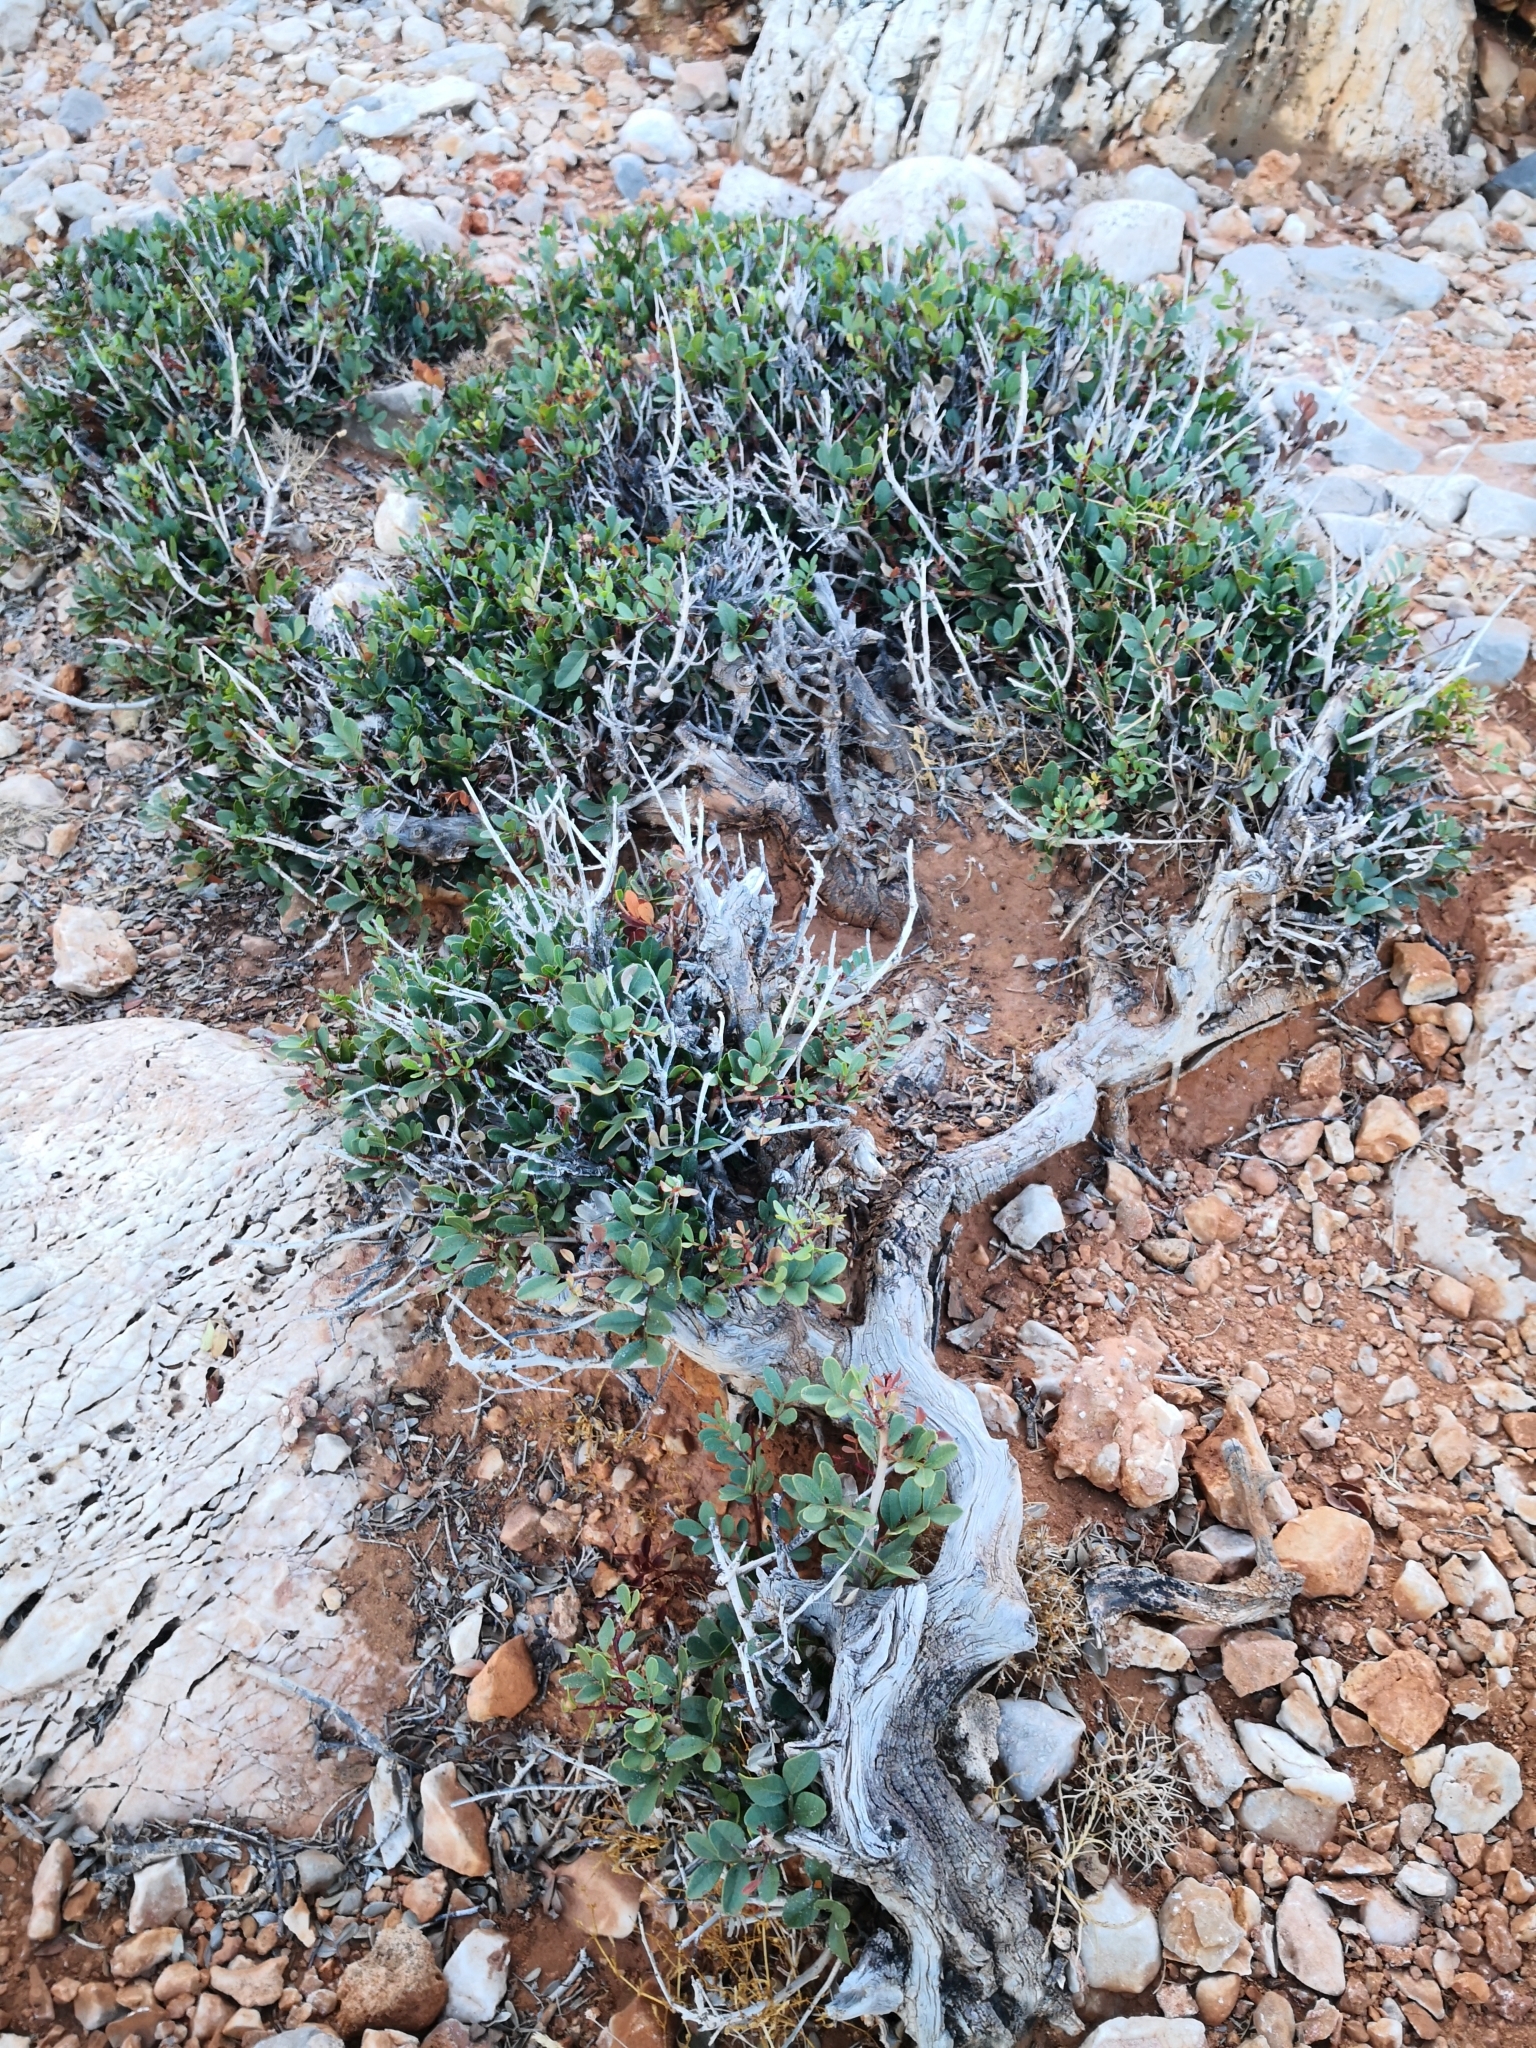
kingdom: Plantae
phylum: Tracheophyta
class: Magnoliopsida
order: Sapindales
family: Anacardiaceae
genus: Pistacia
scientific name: Pistacia lentiscus
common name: Lentisk
